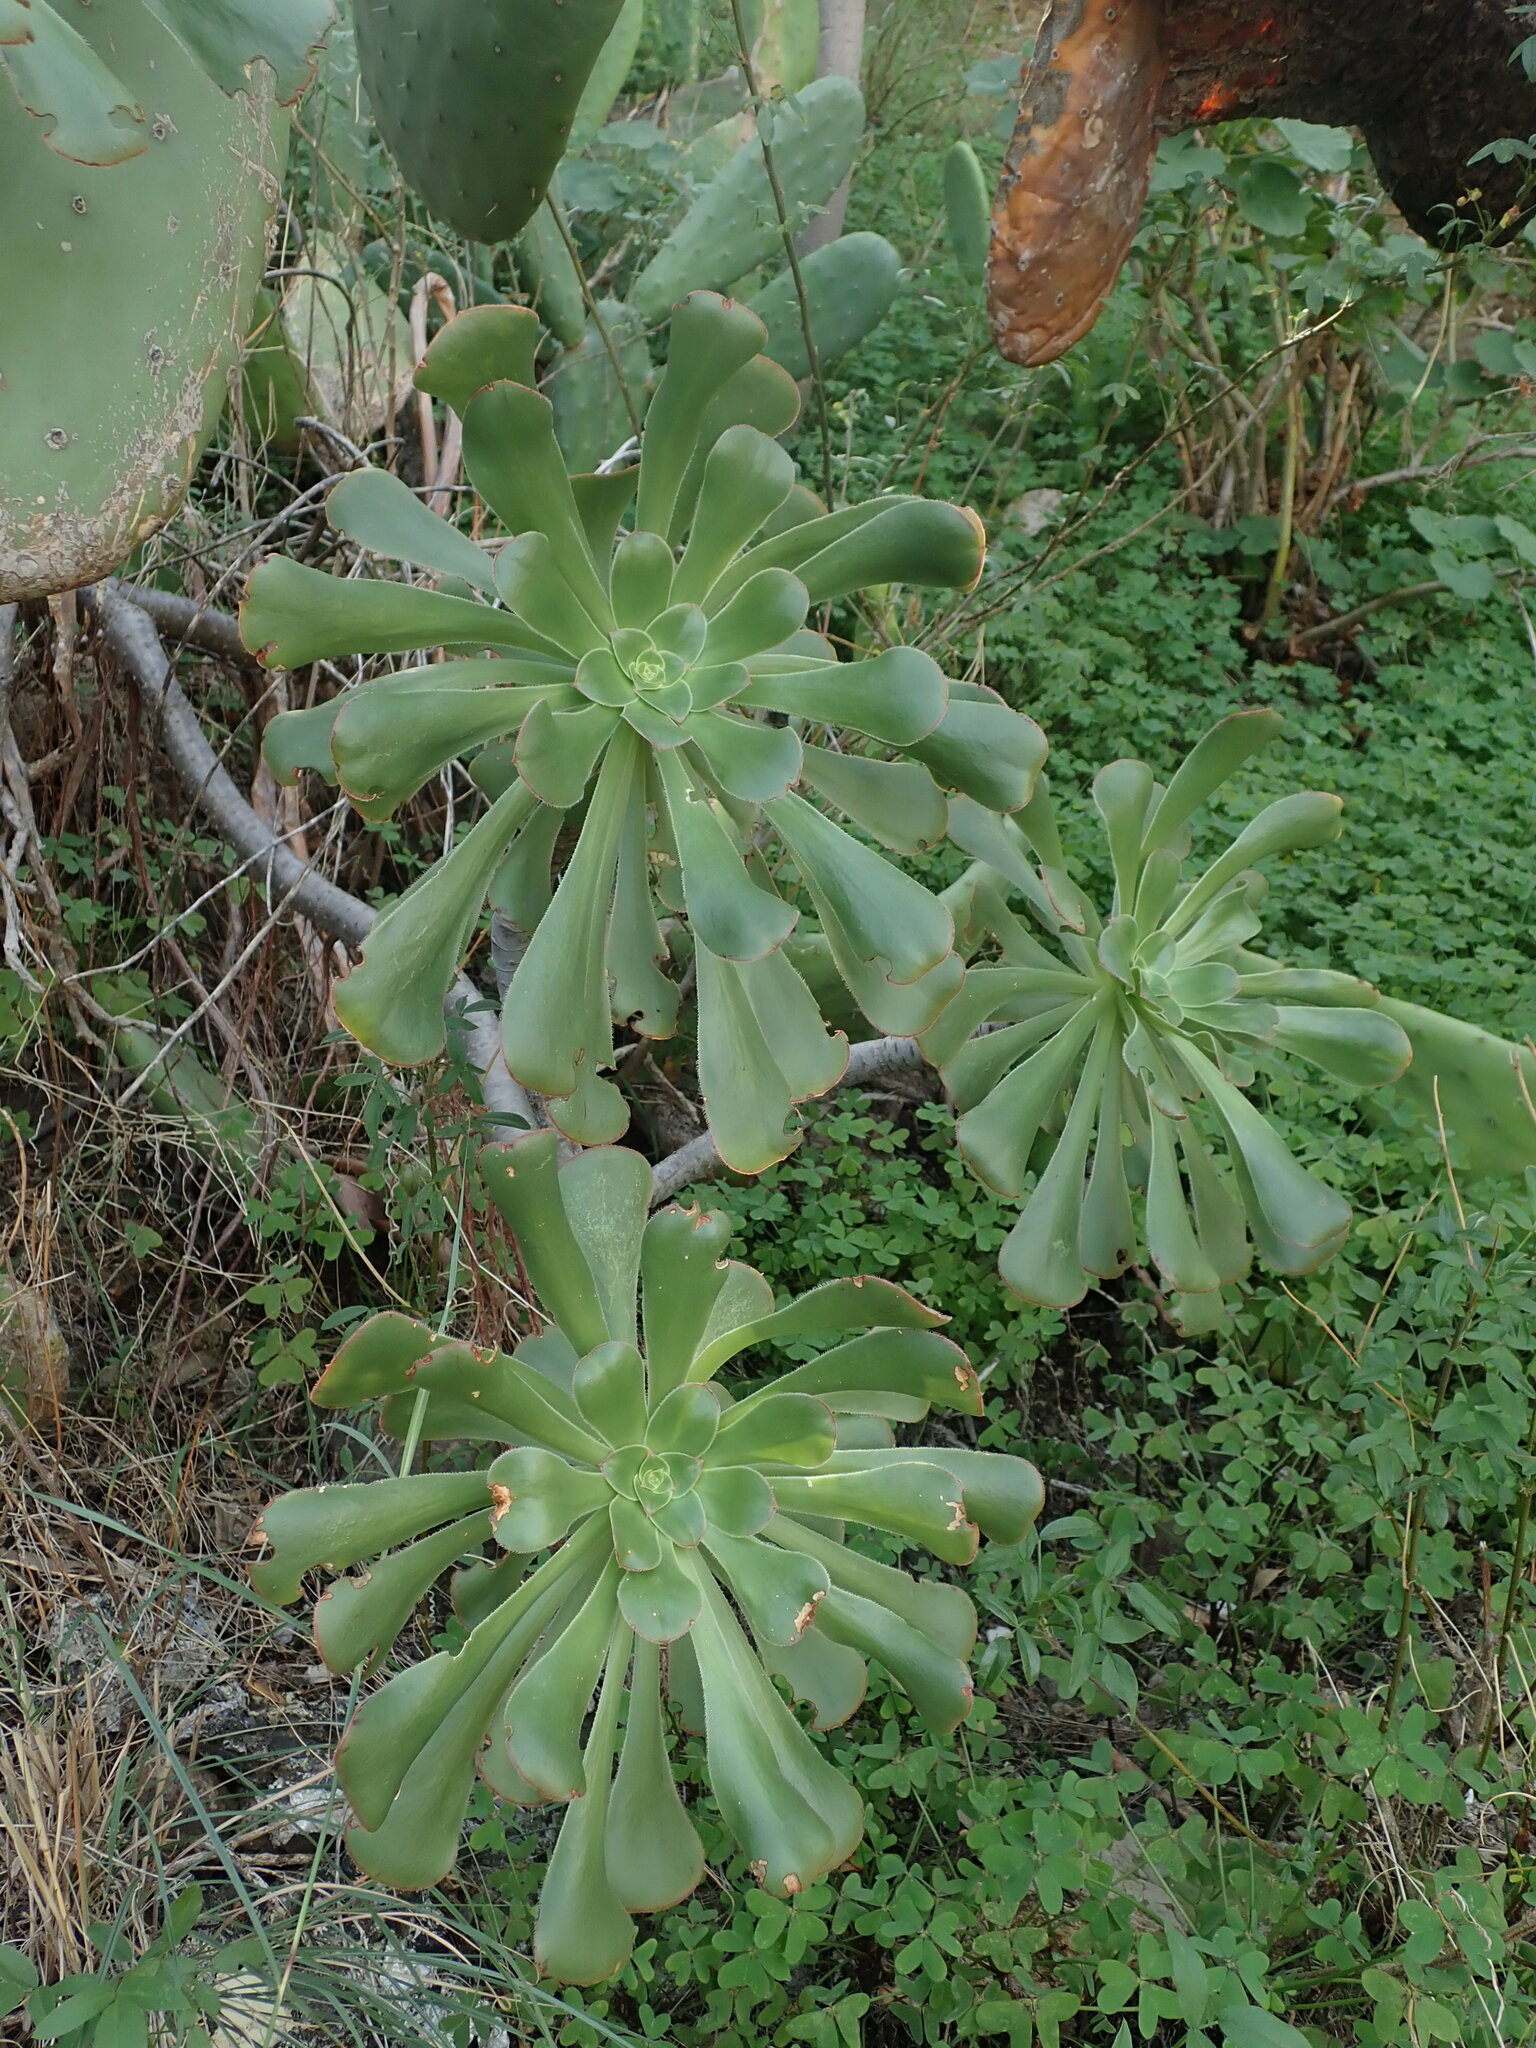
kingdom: Plantae
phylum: Tracheophyta
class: Magnoliopsida
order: Saxifragales
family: Crassulaceae
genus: Aeonium
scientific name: Aeonium arboreum
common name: Tree aeonium
